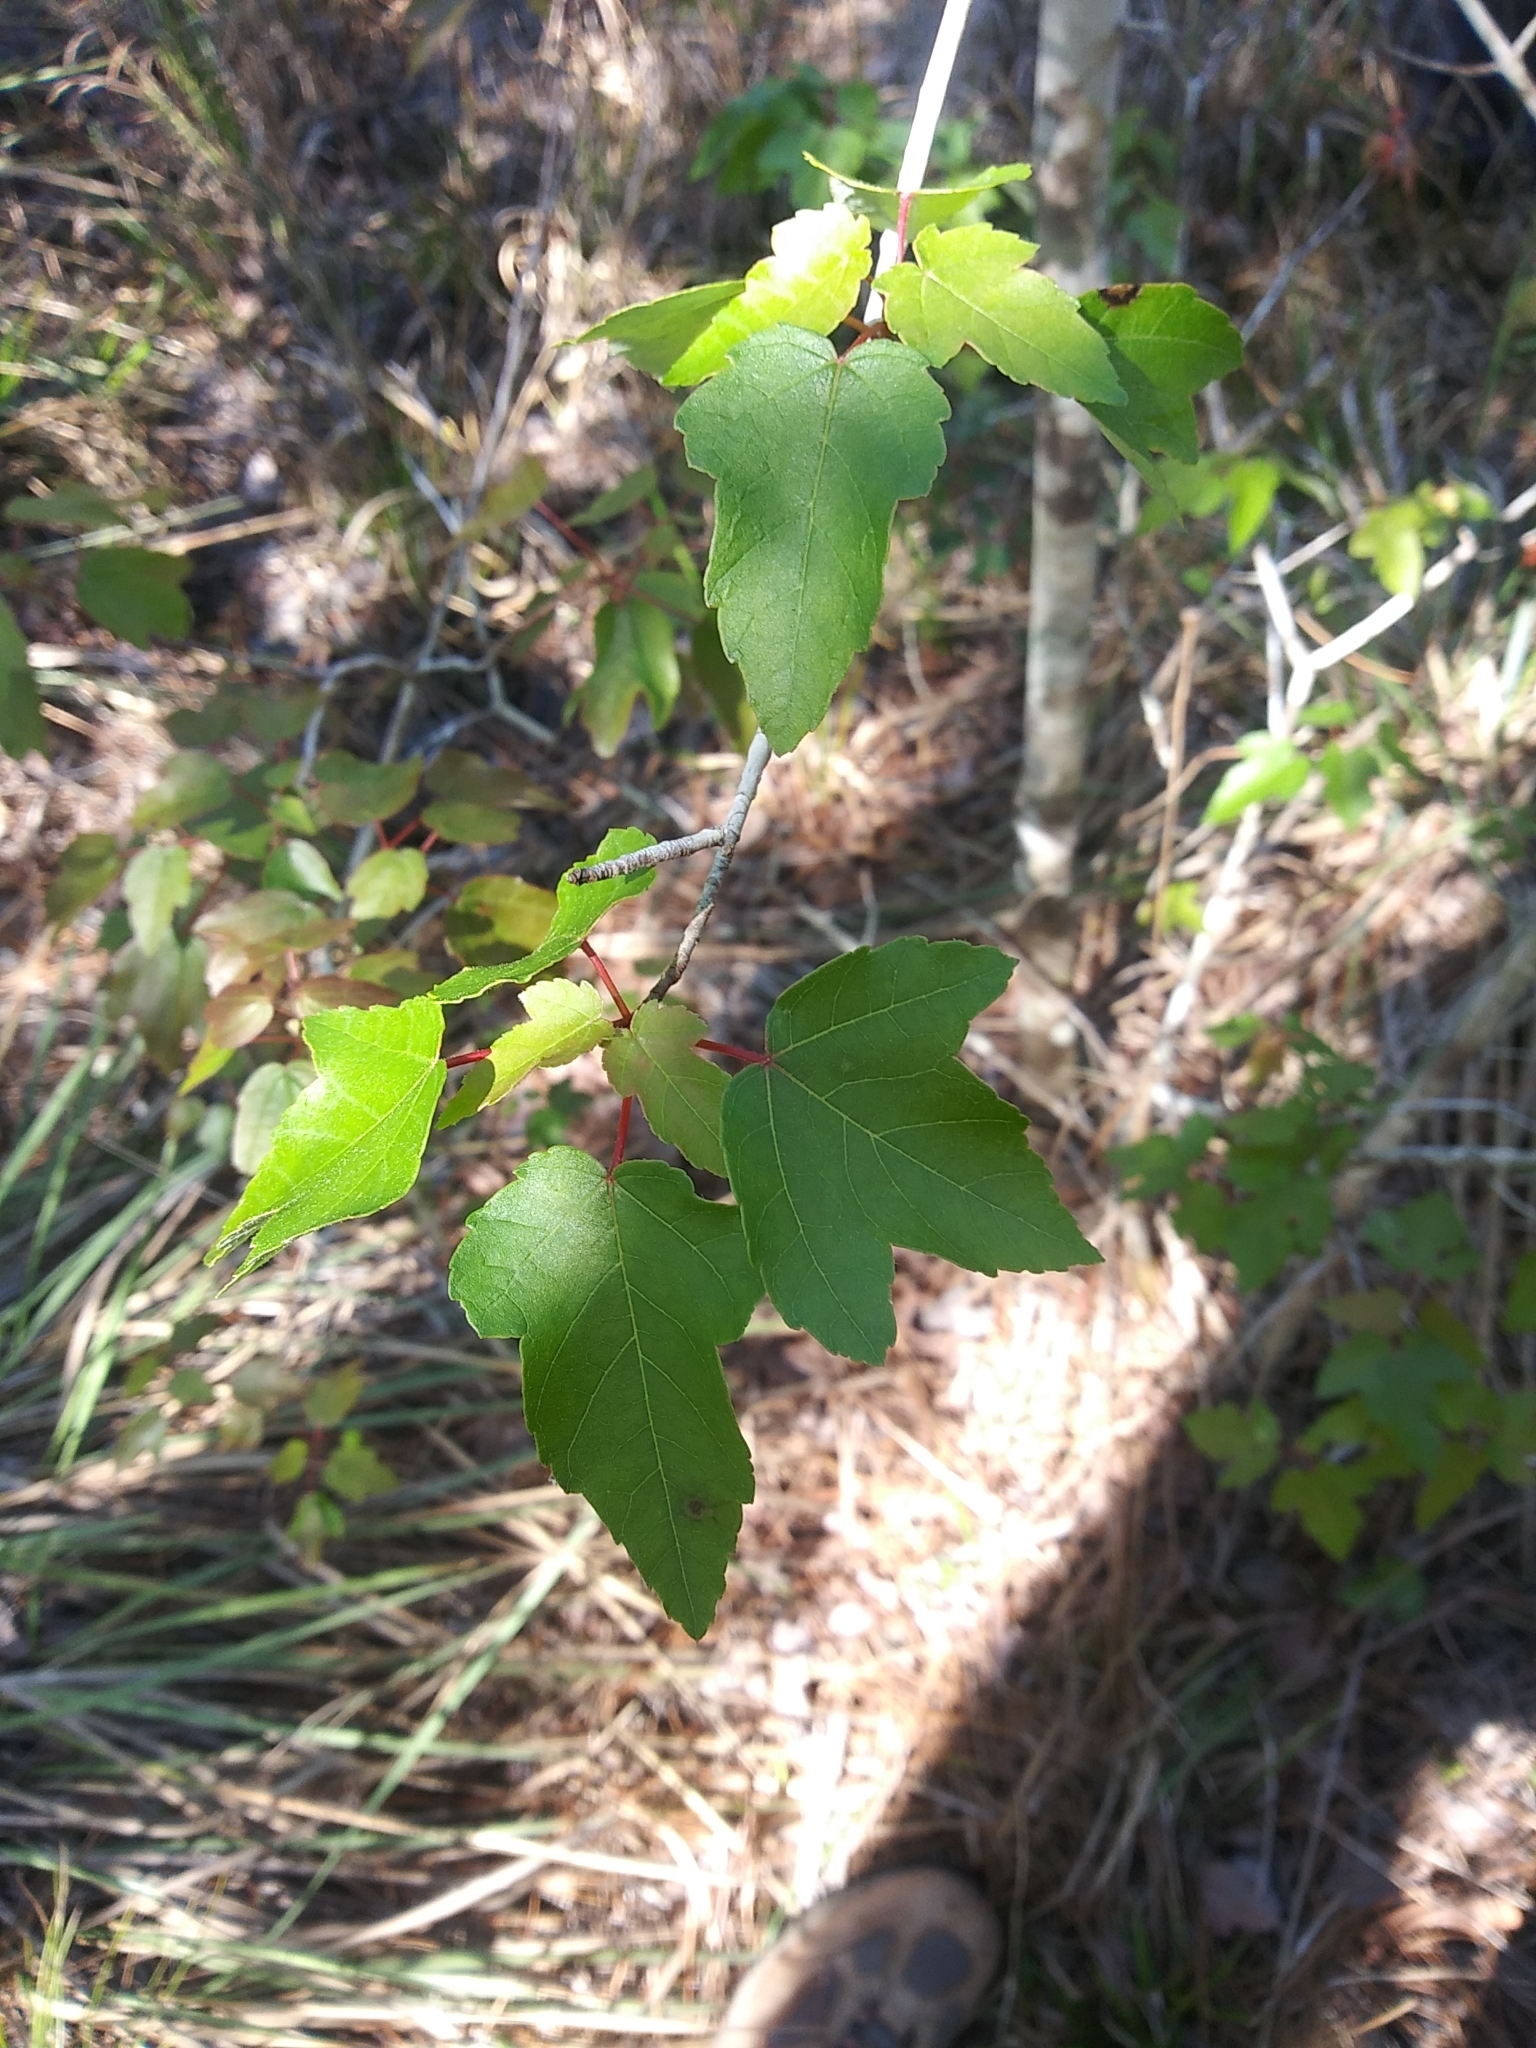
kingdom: Plantae
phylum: Tracheophyta
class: Magnoliopsida
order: Sapindales
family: Sapindaceae
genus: Acer
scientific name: Acer rubrum
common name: Red maple
